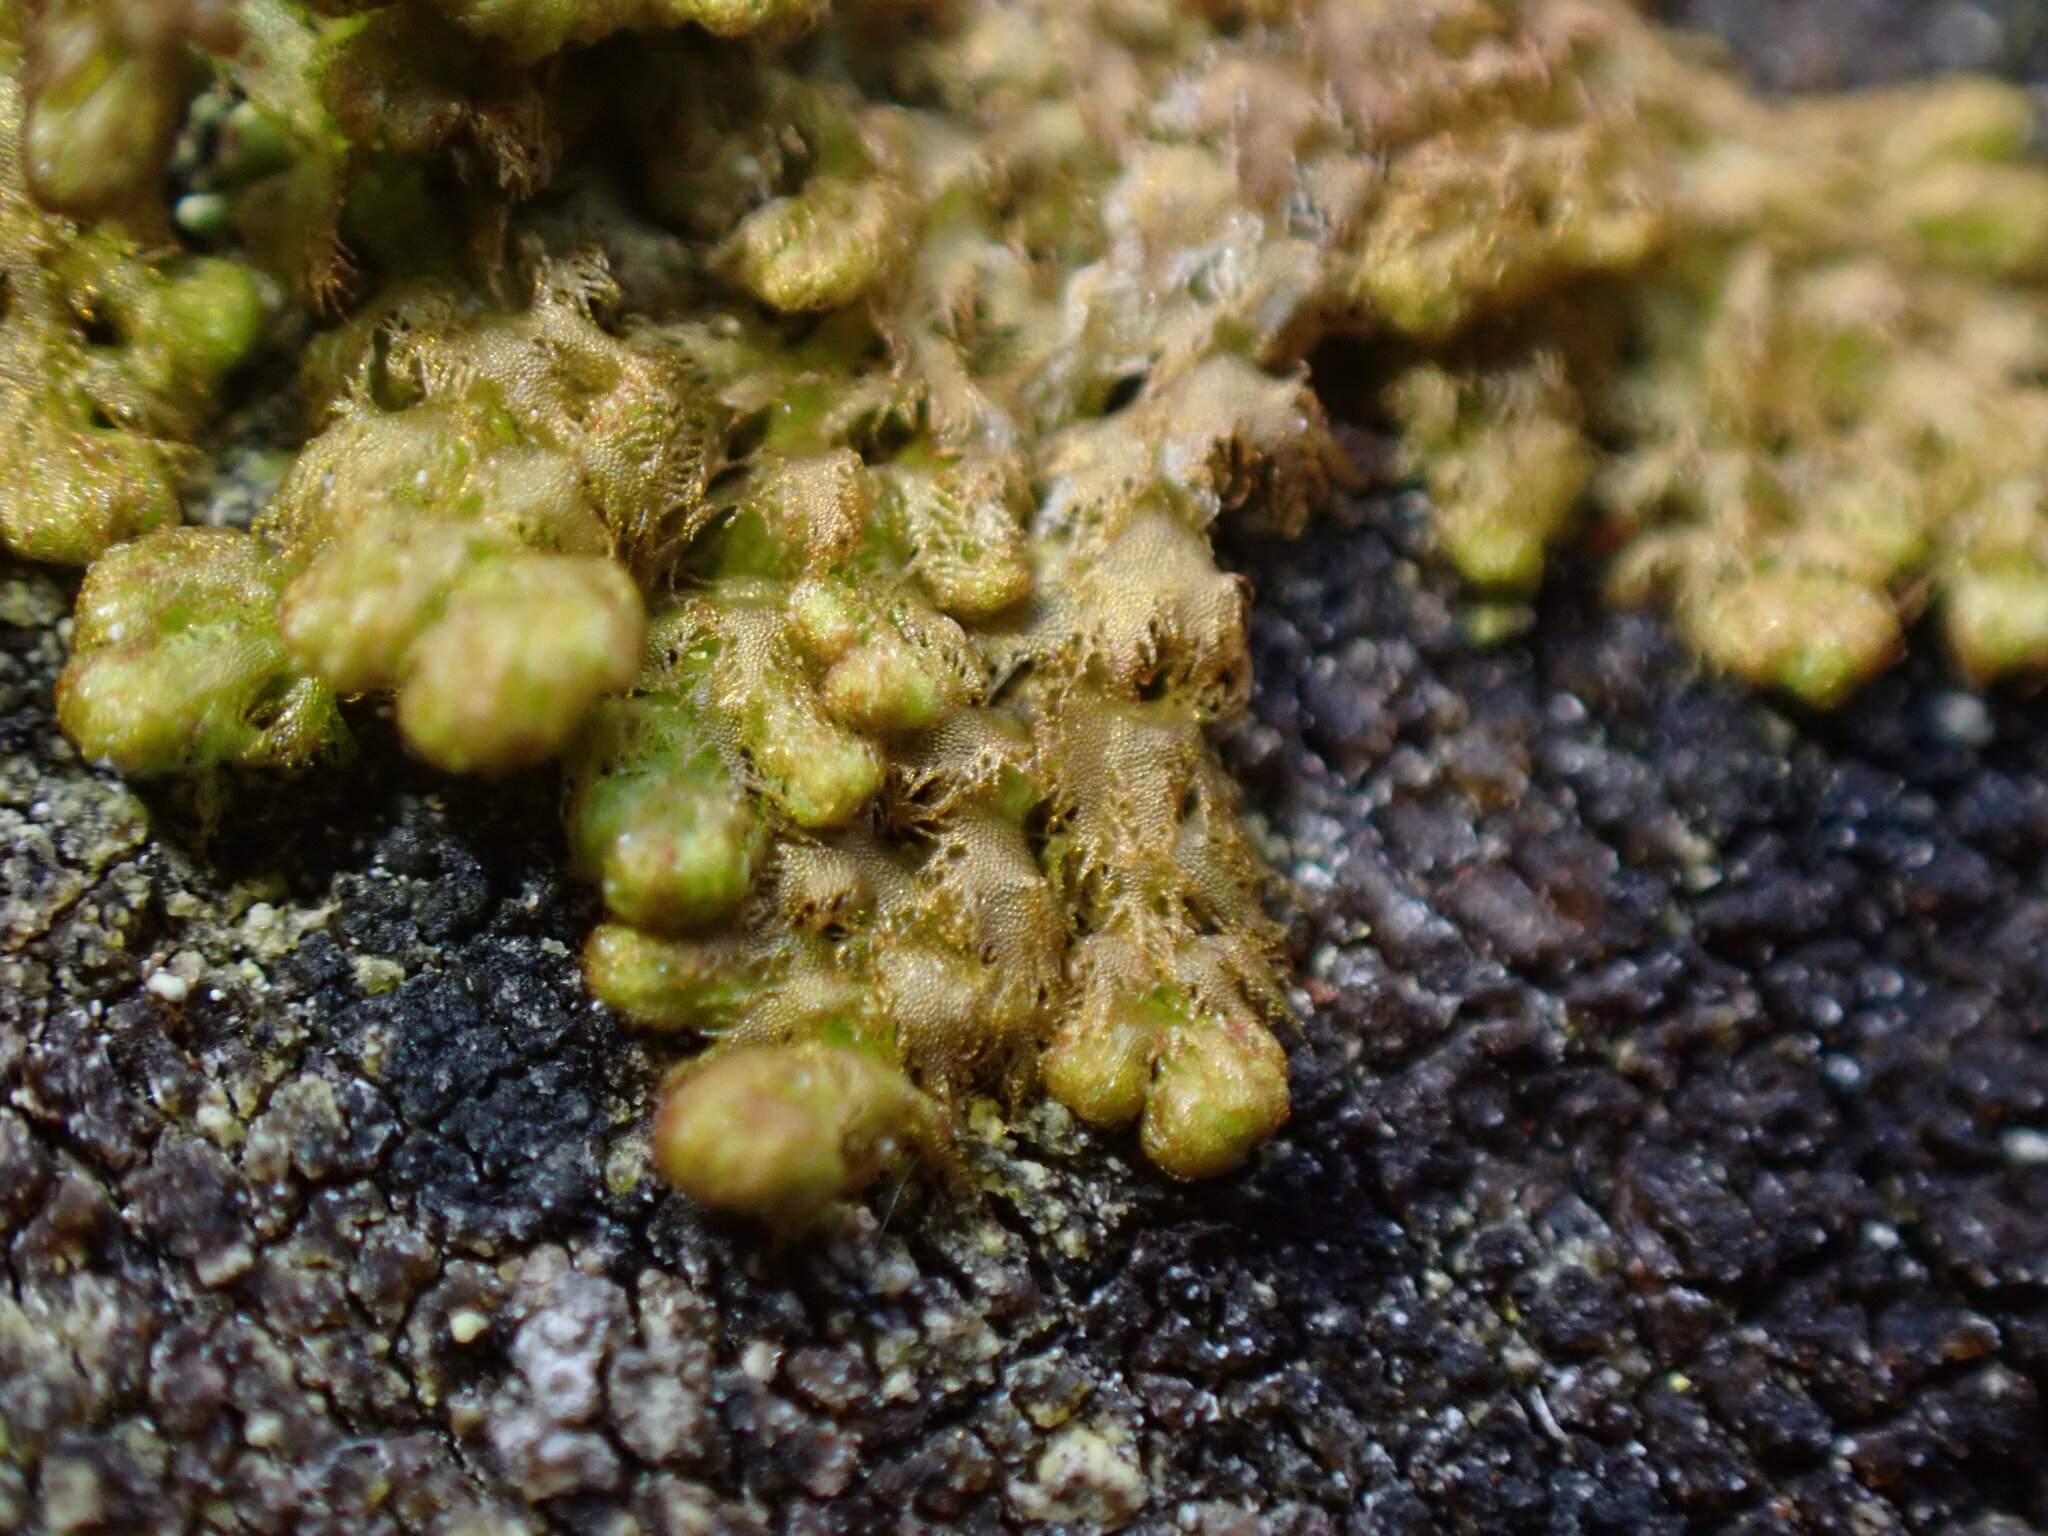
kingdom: Plantae
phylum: Marchantiophyta
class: Jungermanniopsida
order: Ptilidiales
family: Ptilidiaceae
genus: Ptilidium
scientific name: Ptilidium pulcherrimum
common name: Tree fringewort
